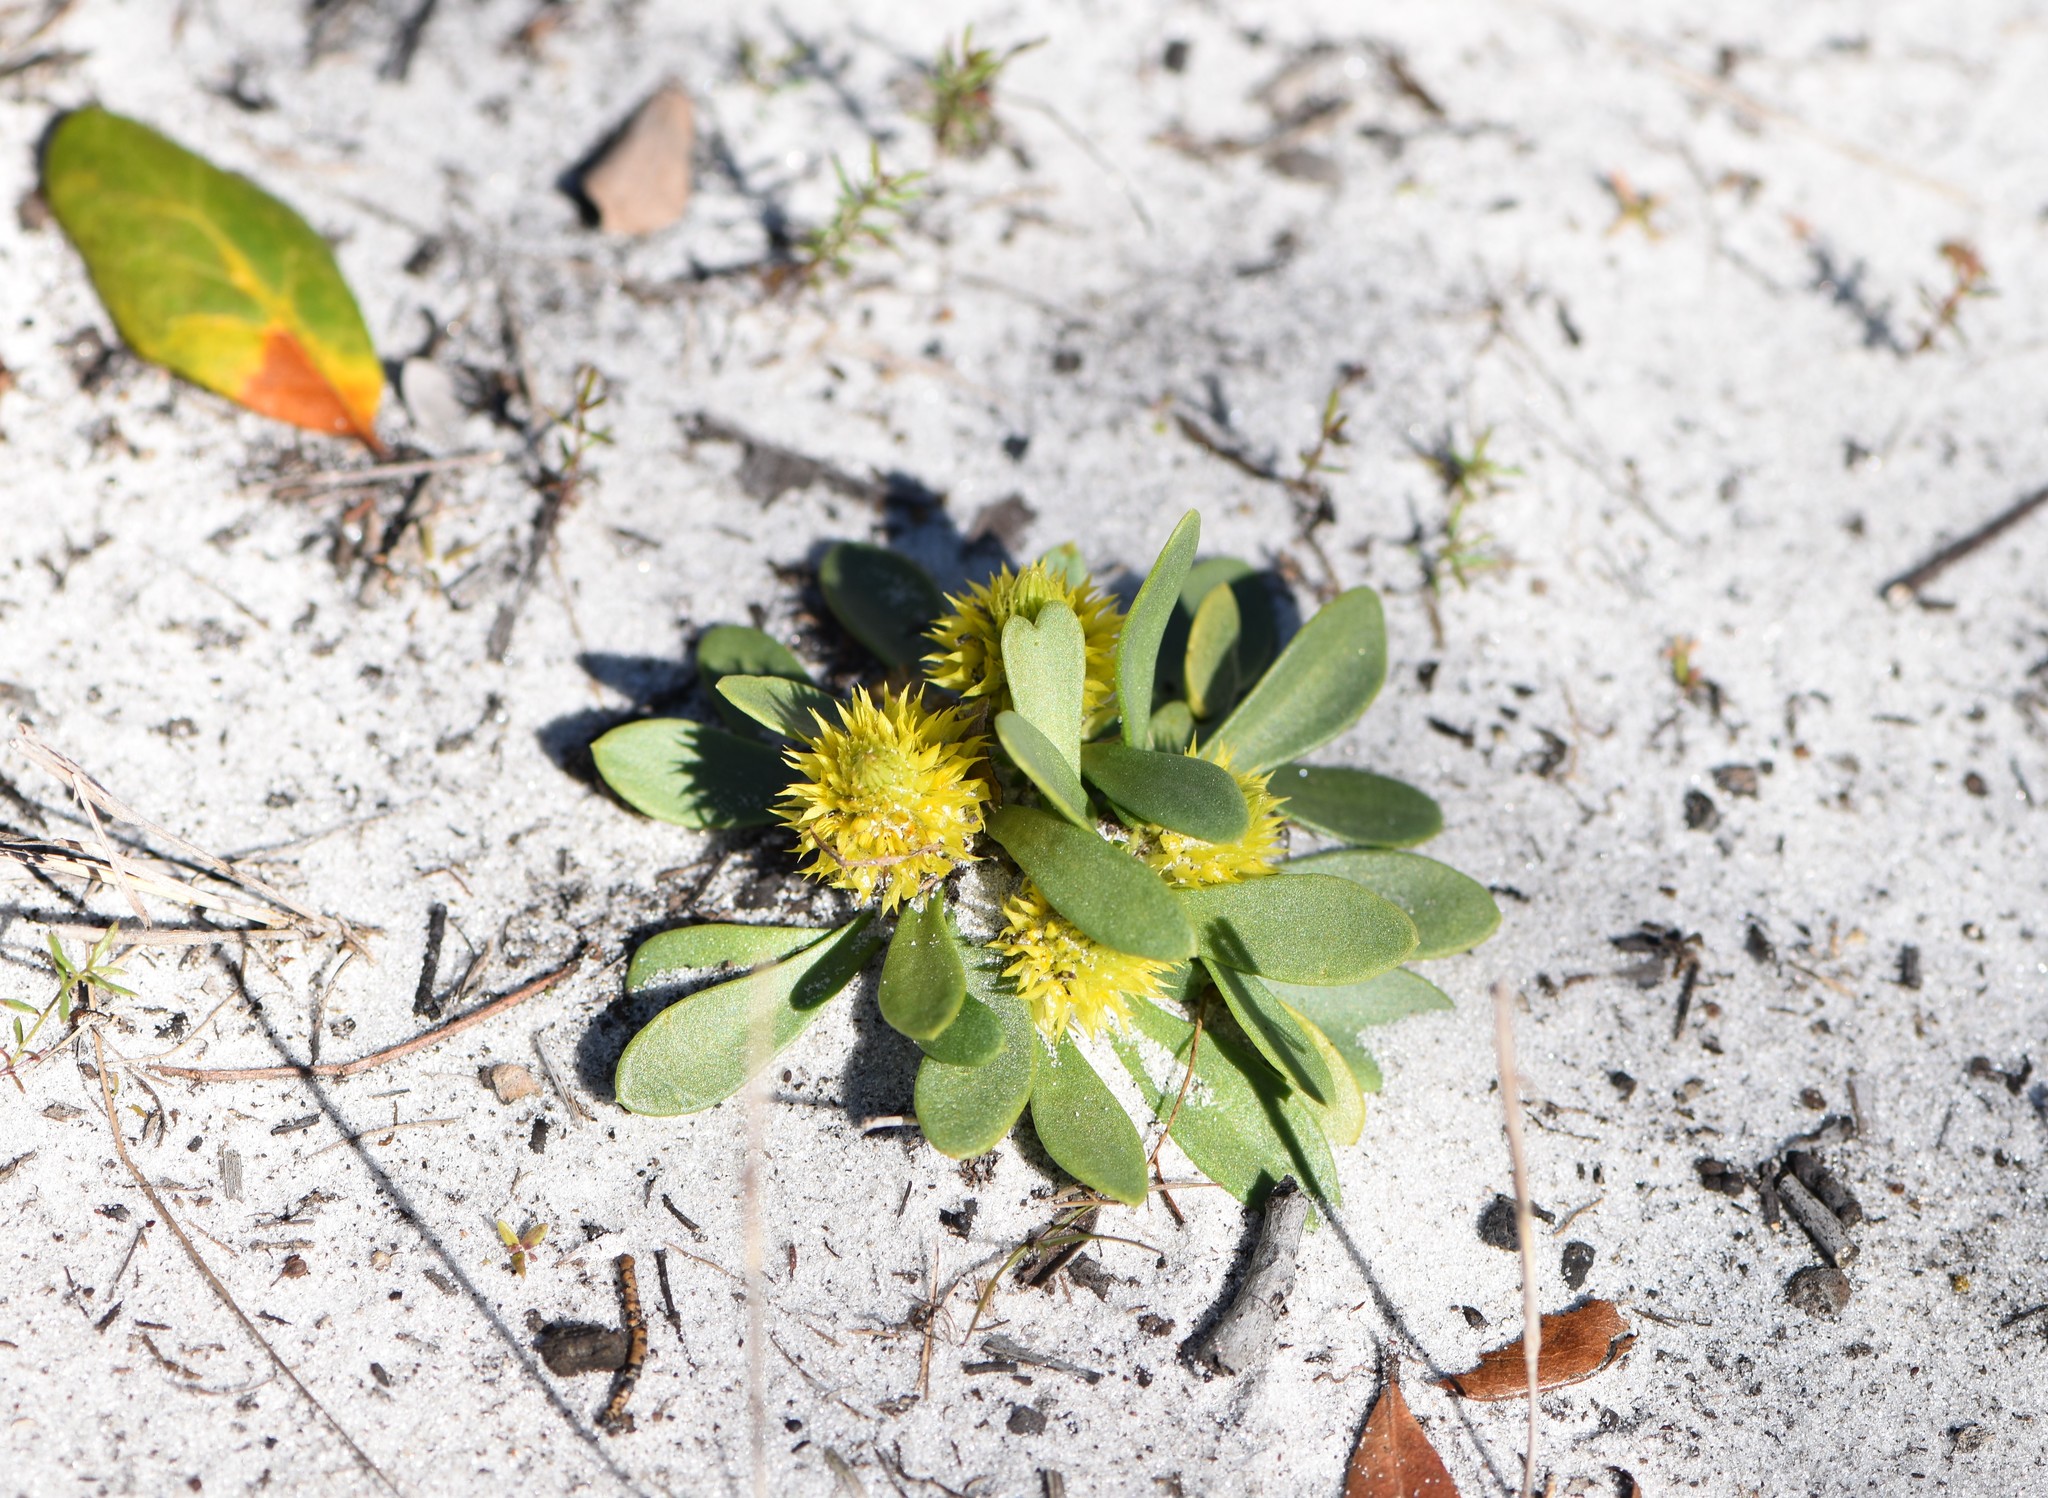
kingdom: Plantae
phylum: Tracheophyta
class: Magnoliopsida
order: Fabales
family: Polygalaceae
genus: Polygala
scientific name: Polygala nana
